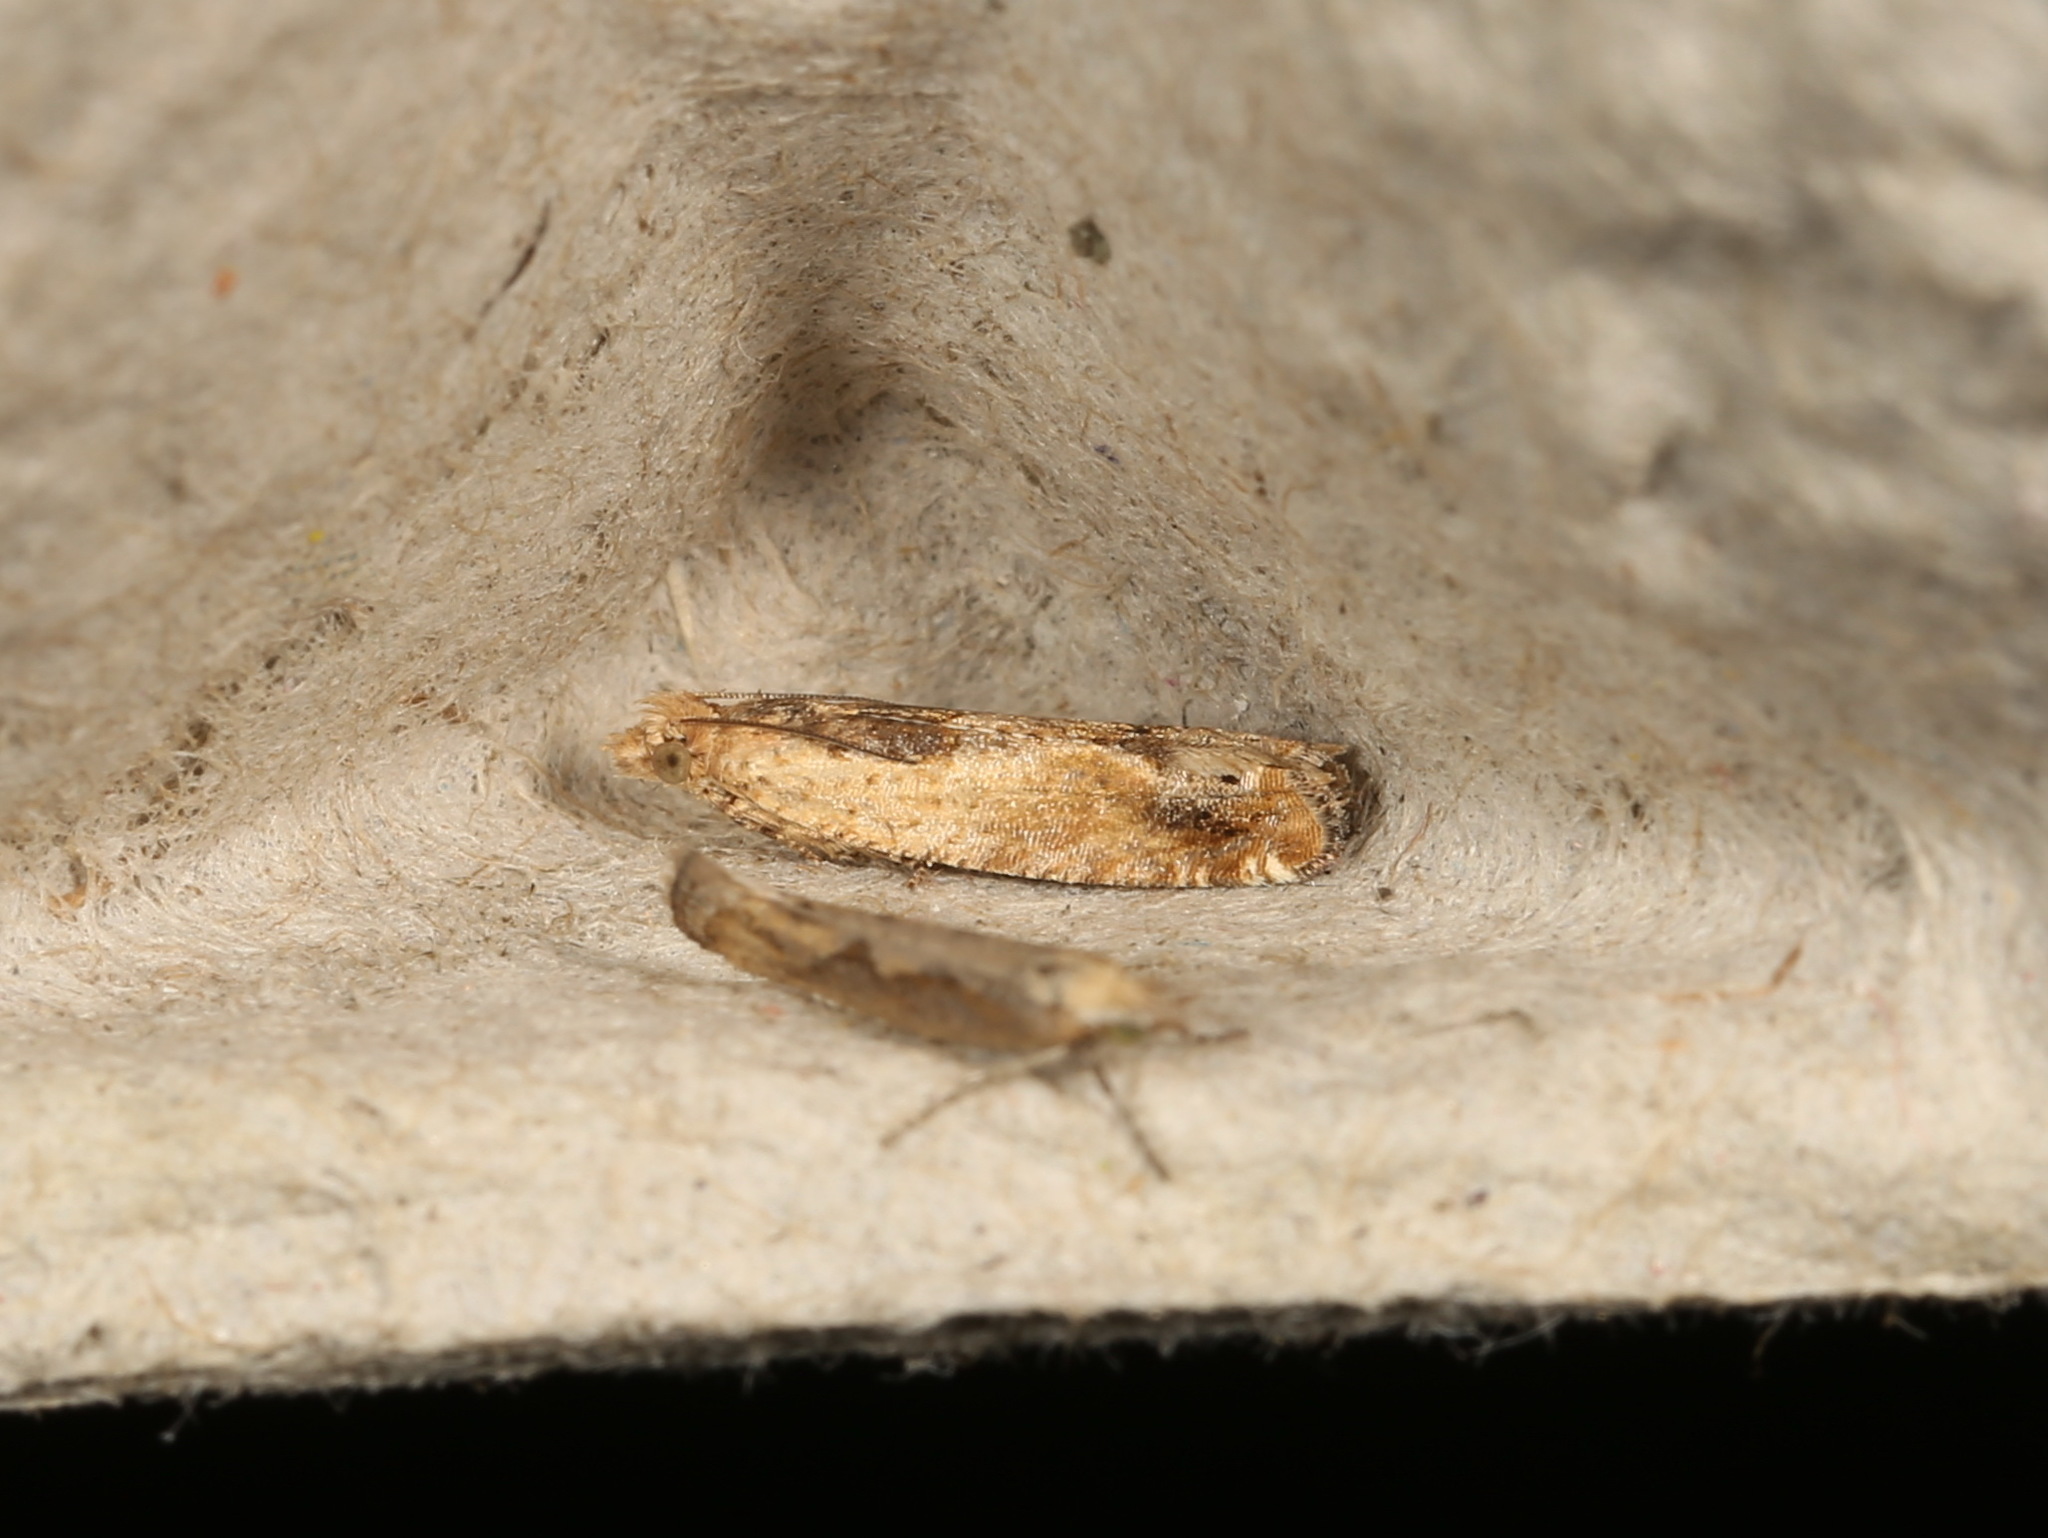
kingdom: Animalia
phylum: Arthropoda
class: Insecta
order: Lepidoptera
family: Tortricidae
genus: Crocidosema
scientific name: Crocidosema plebejana
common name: Southern bell
